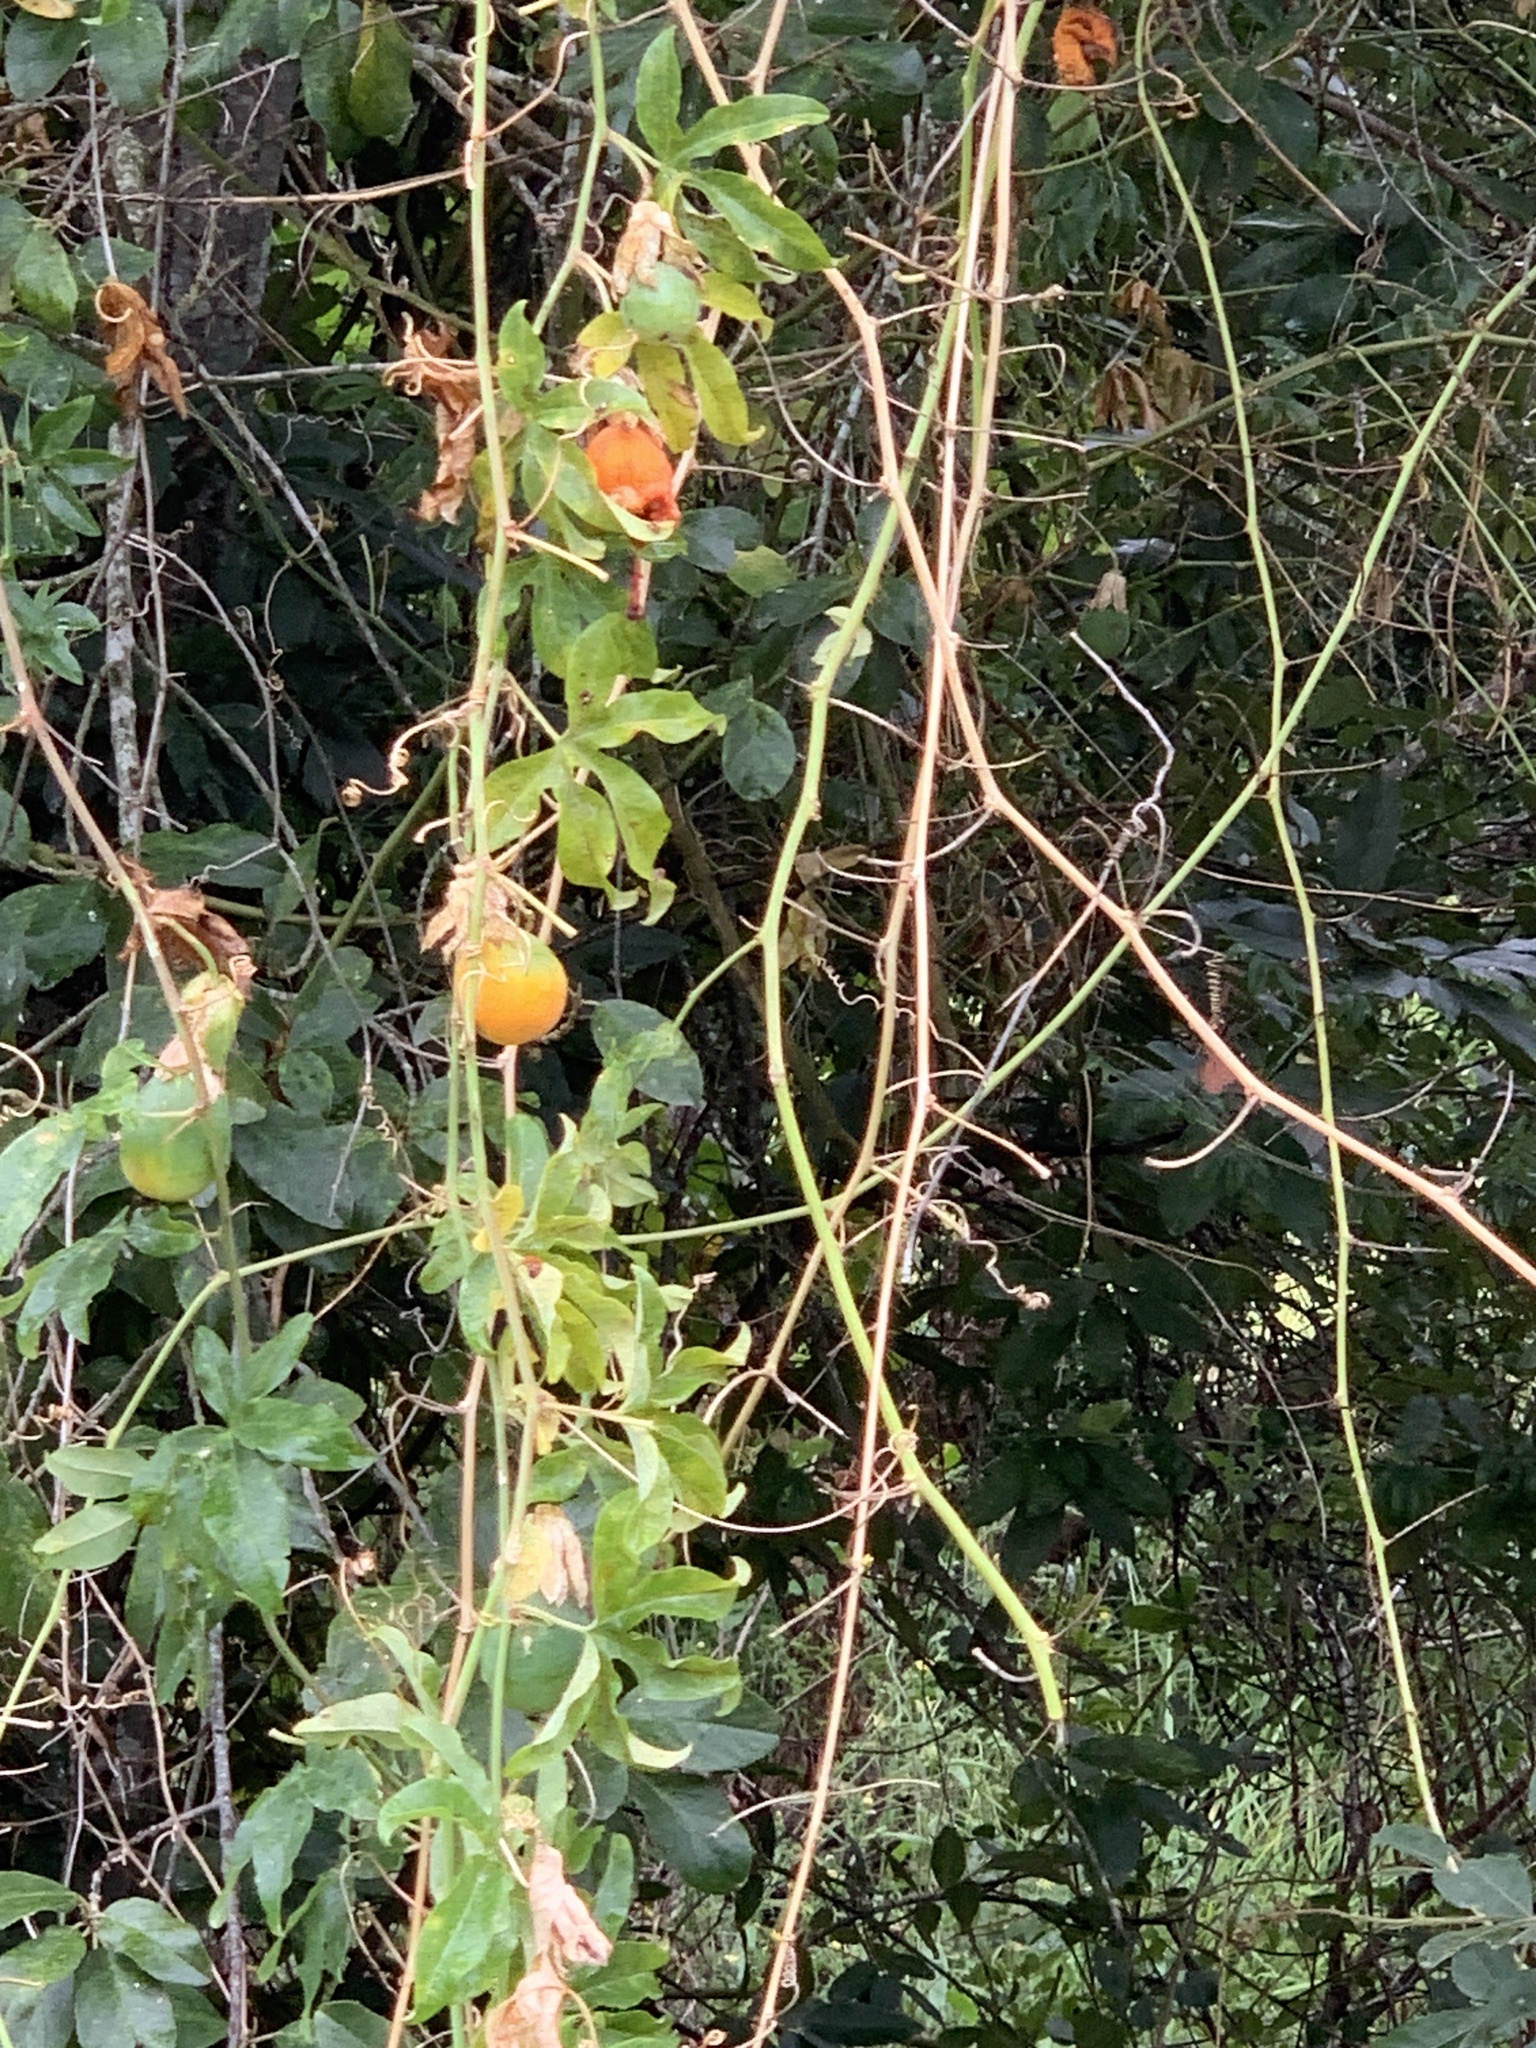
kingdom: Plantae
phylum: Tracheophyta
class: Magnoliopsida
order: Malpighiales
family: Passifloraceae
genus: Passiflora
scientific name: Passiflora caerulea
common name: Blue passionflower
